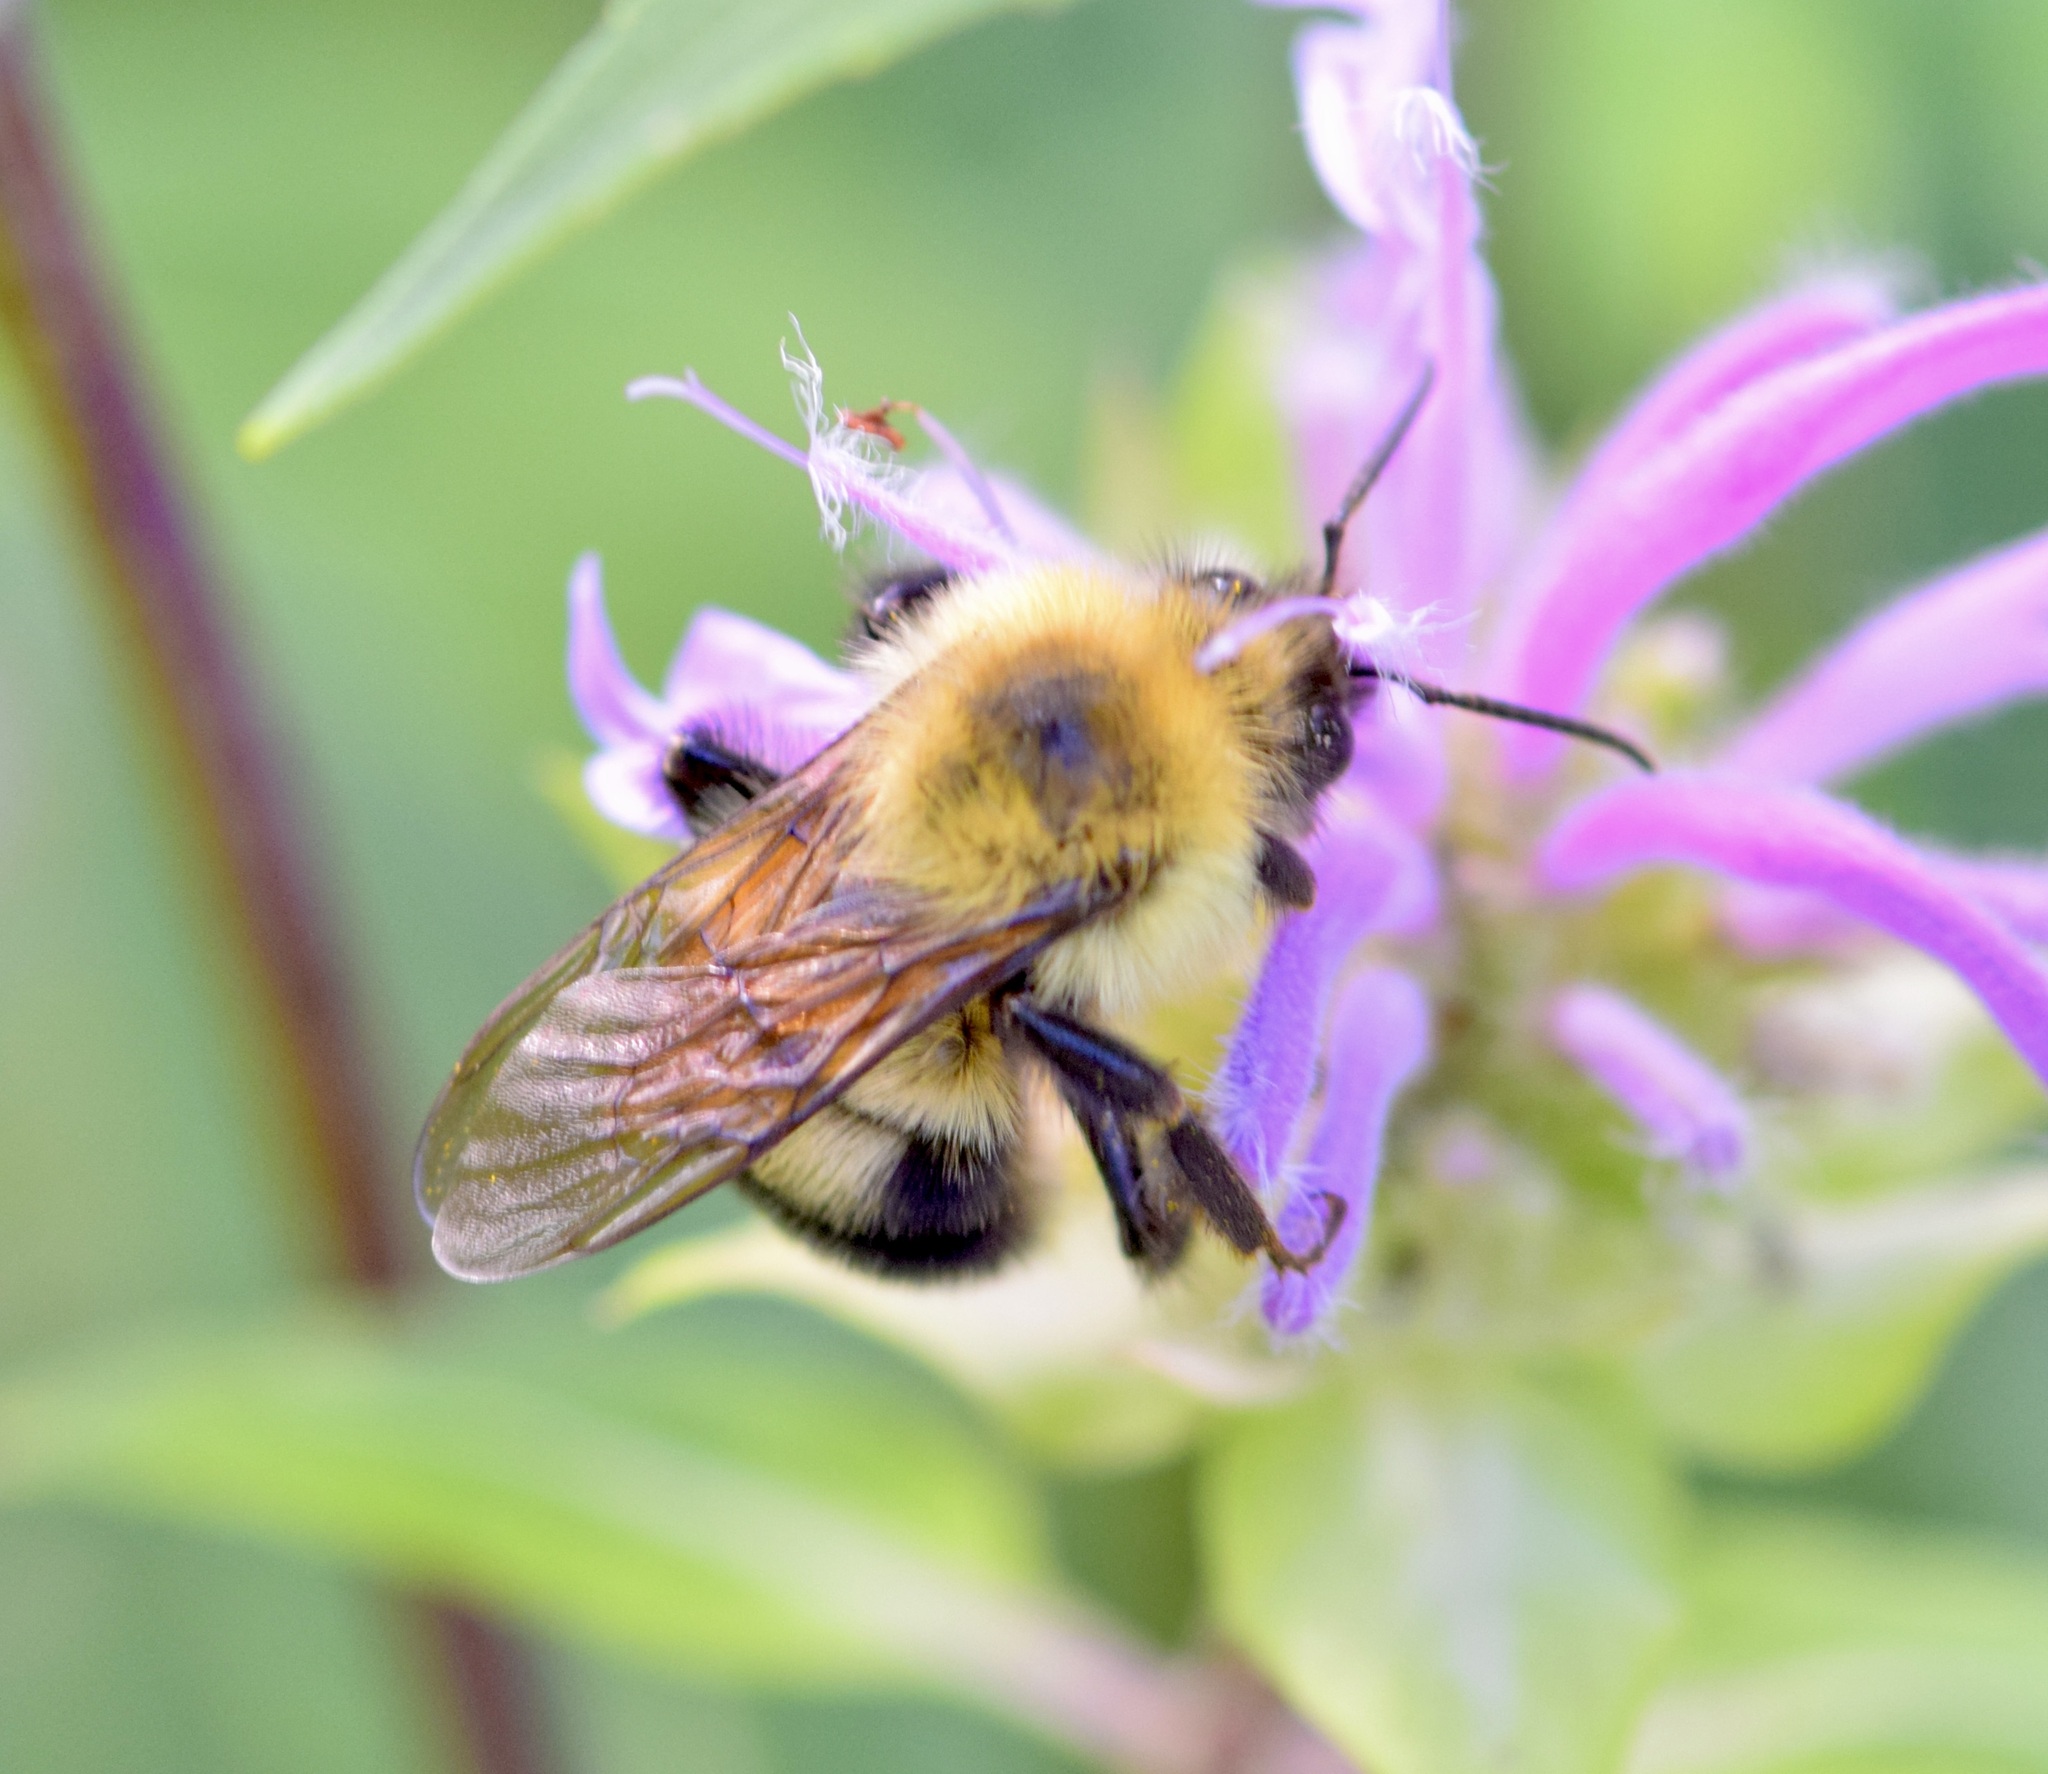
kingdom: Animalia
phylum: Arthropoda
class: Insecta
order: Hymenoptera
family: Apidae
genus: Bombus
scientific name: Bombus bimaculatus
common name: Two-spotted bumble bee
